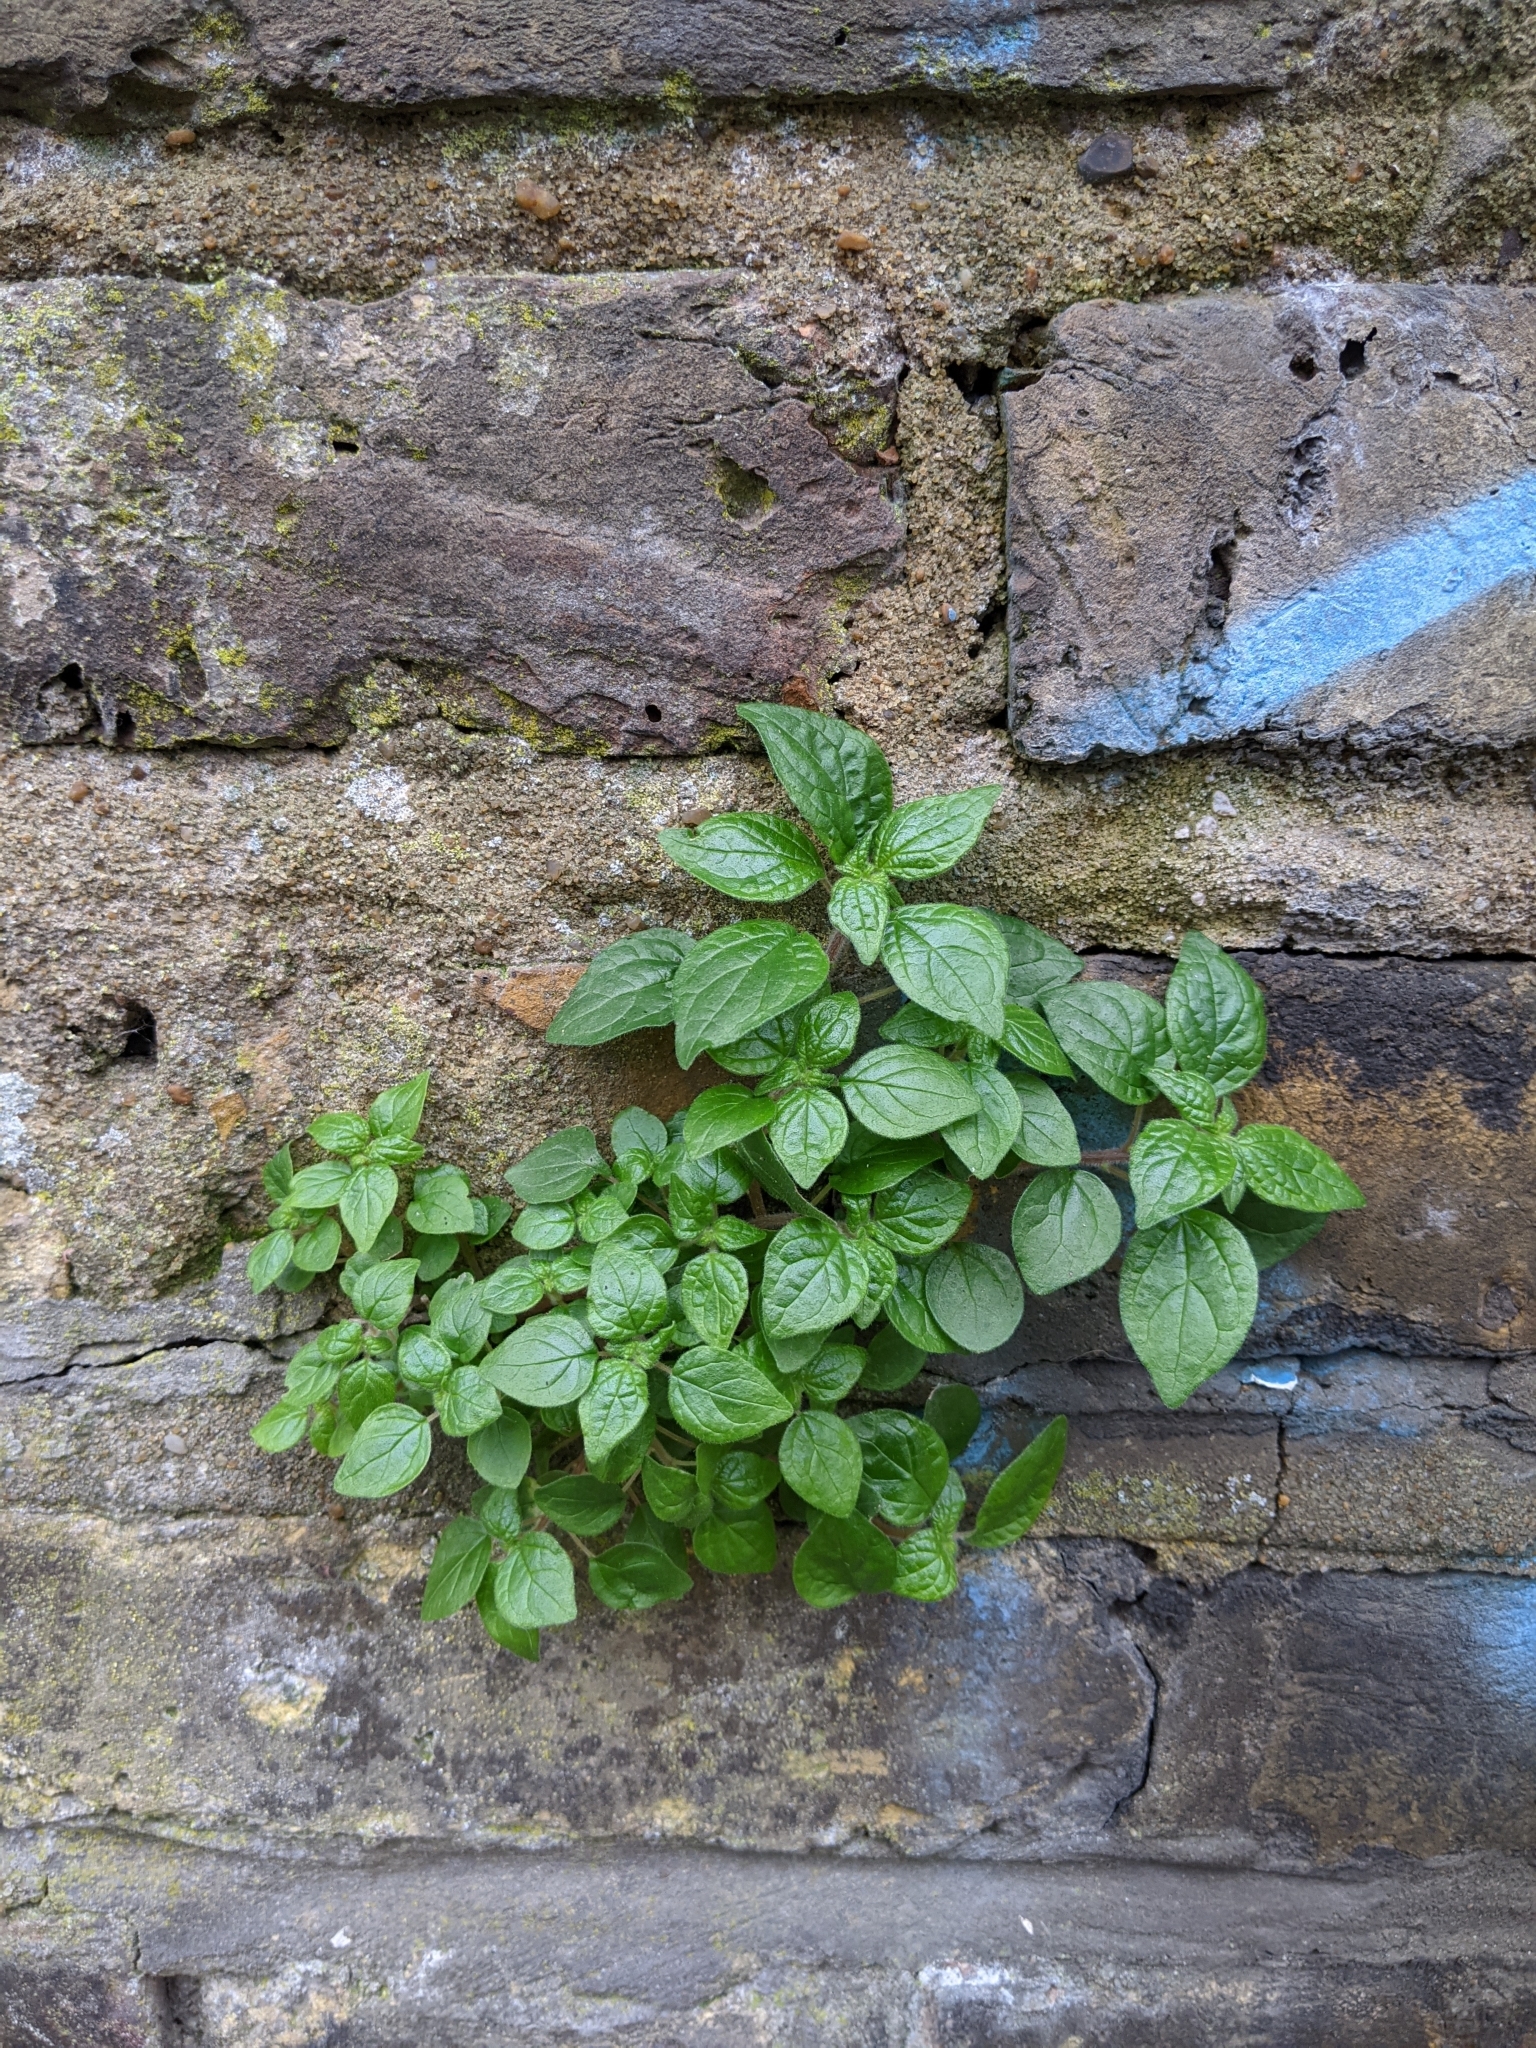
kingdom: Plantae
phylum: Tracheophyta
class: Magnoliopsida
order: Rosales
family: Urticaceae
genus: Parietaria
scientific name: Parietaria judaica
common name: Pellitory-of-the-wall
